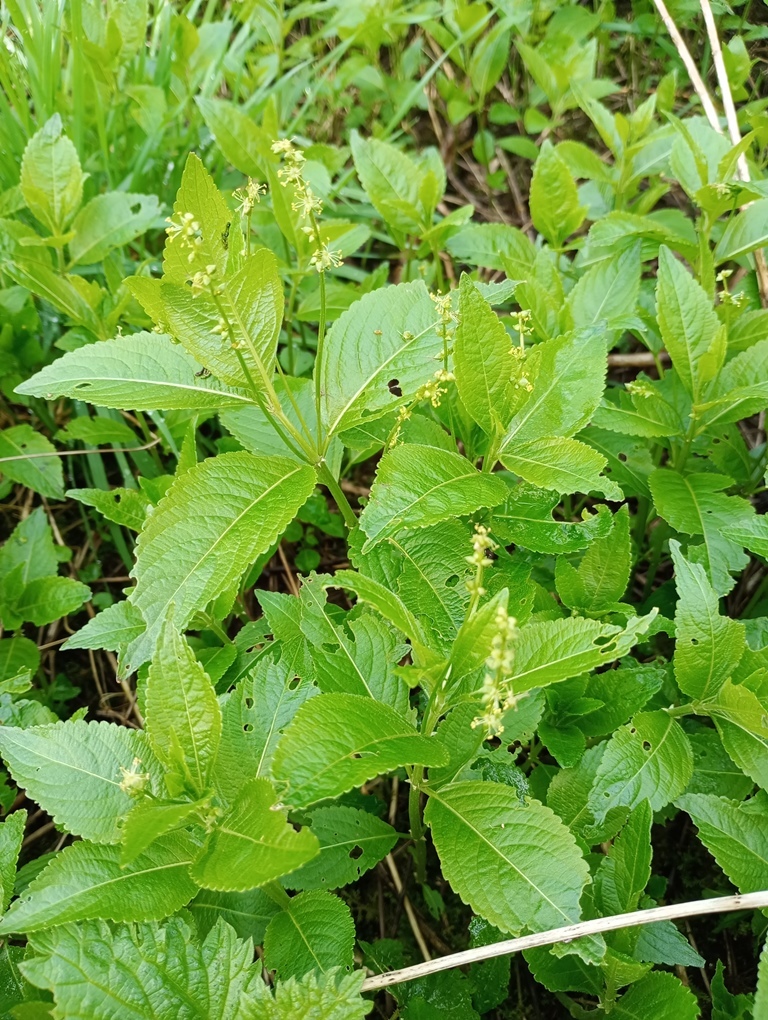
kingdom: Plantae
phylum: Tracheophyta
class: Magnoliopsida
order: Malpighiales
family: Euphorbiaceae
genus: Mercurialis
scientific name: Mercurialis perennis
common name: Dog mercury
